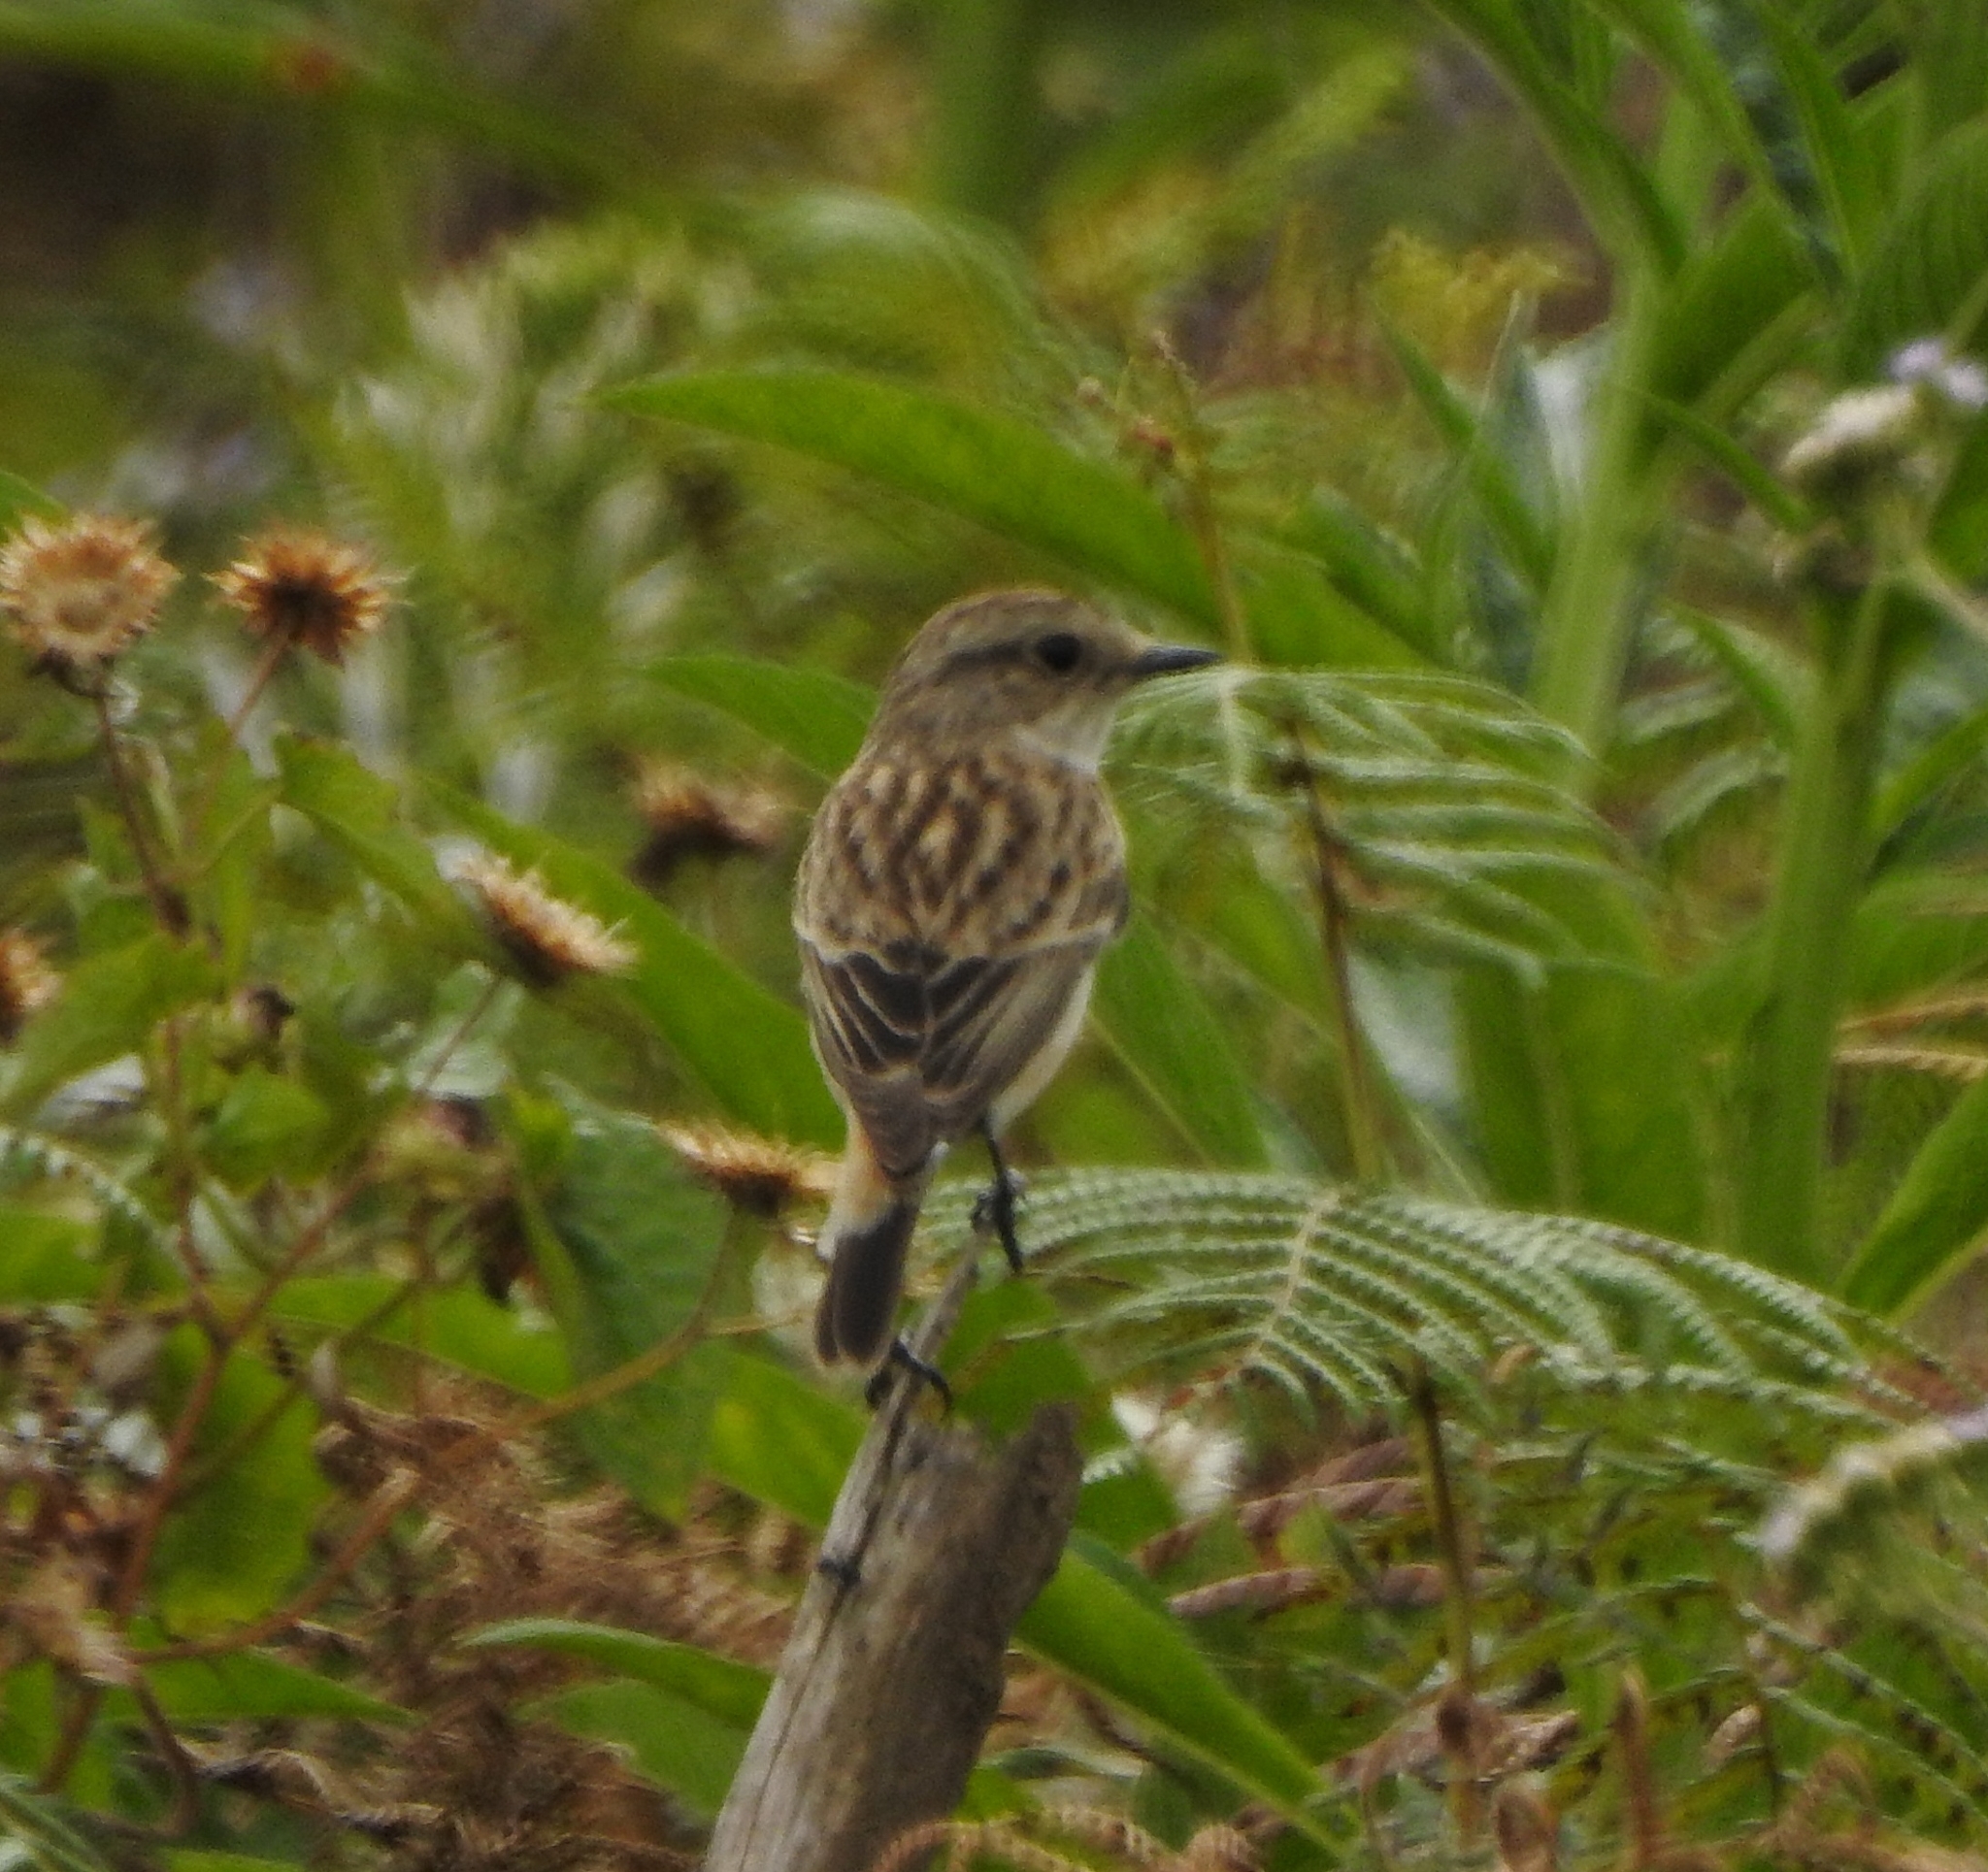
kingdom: Animalia
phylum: Chordata
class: Aves
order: Passeriformes
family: Muscicapidae
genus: Saxicola
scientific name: Saxicola maurus
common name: Siberian stonechat
